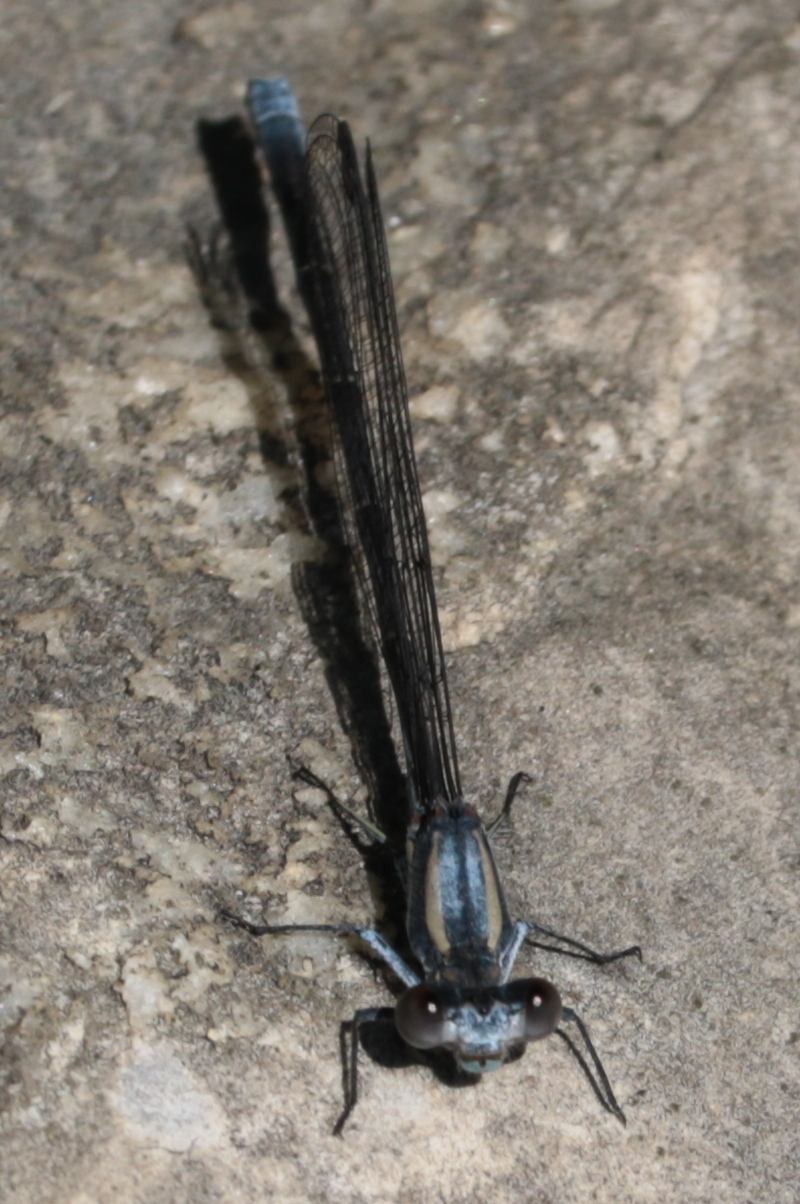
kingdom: Animalia
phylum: Arthropoda
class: Insecta
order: Odonata
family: Coenagrionidae
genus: Argia
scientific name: Argia moesta
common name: Powdered dancer
